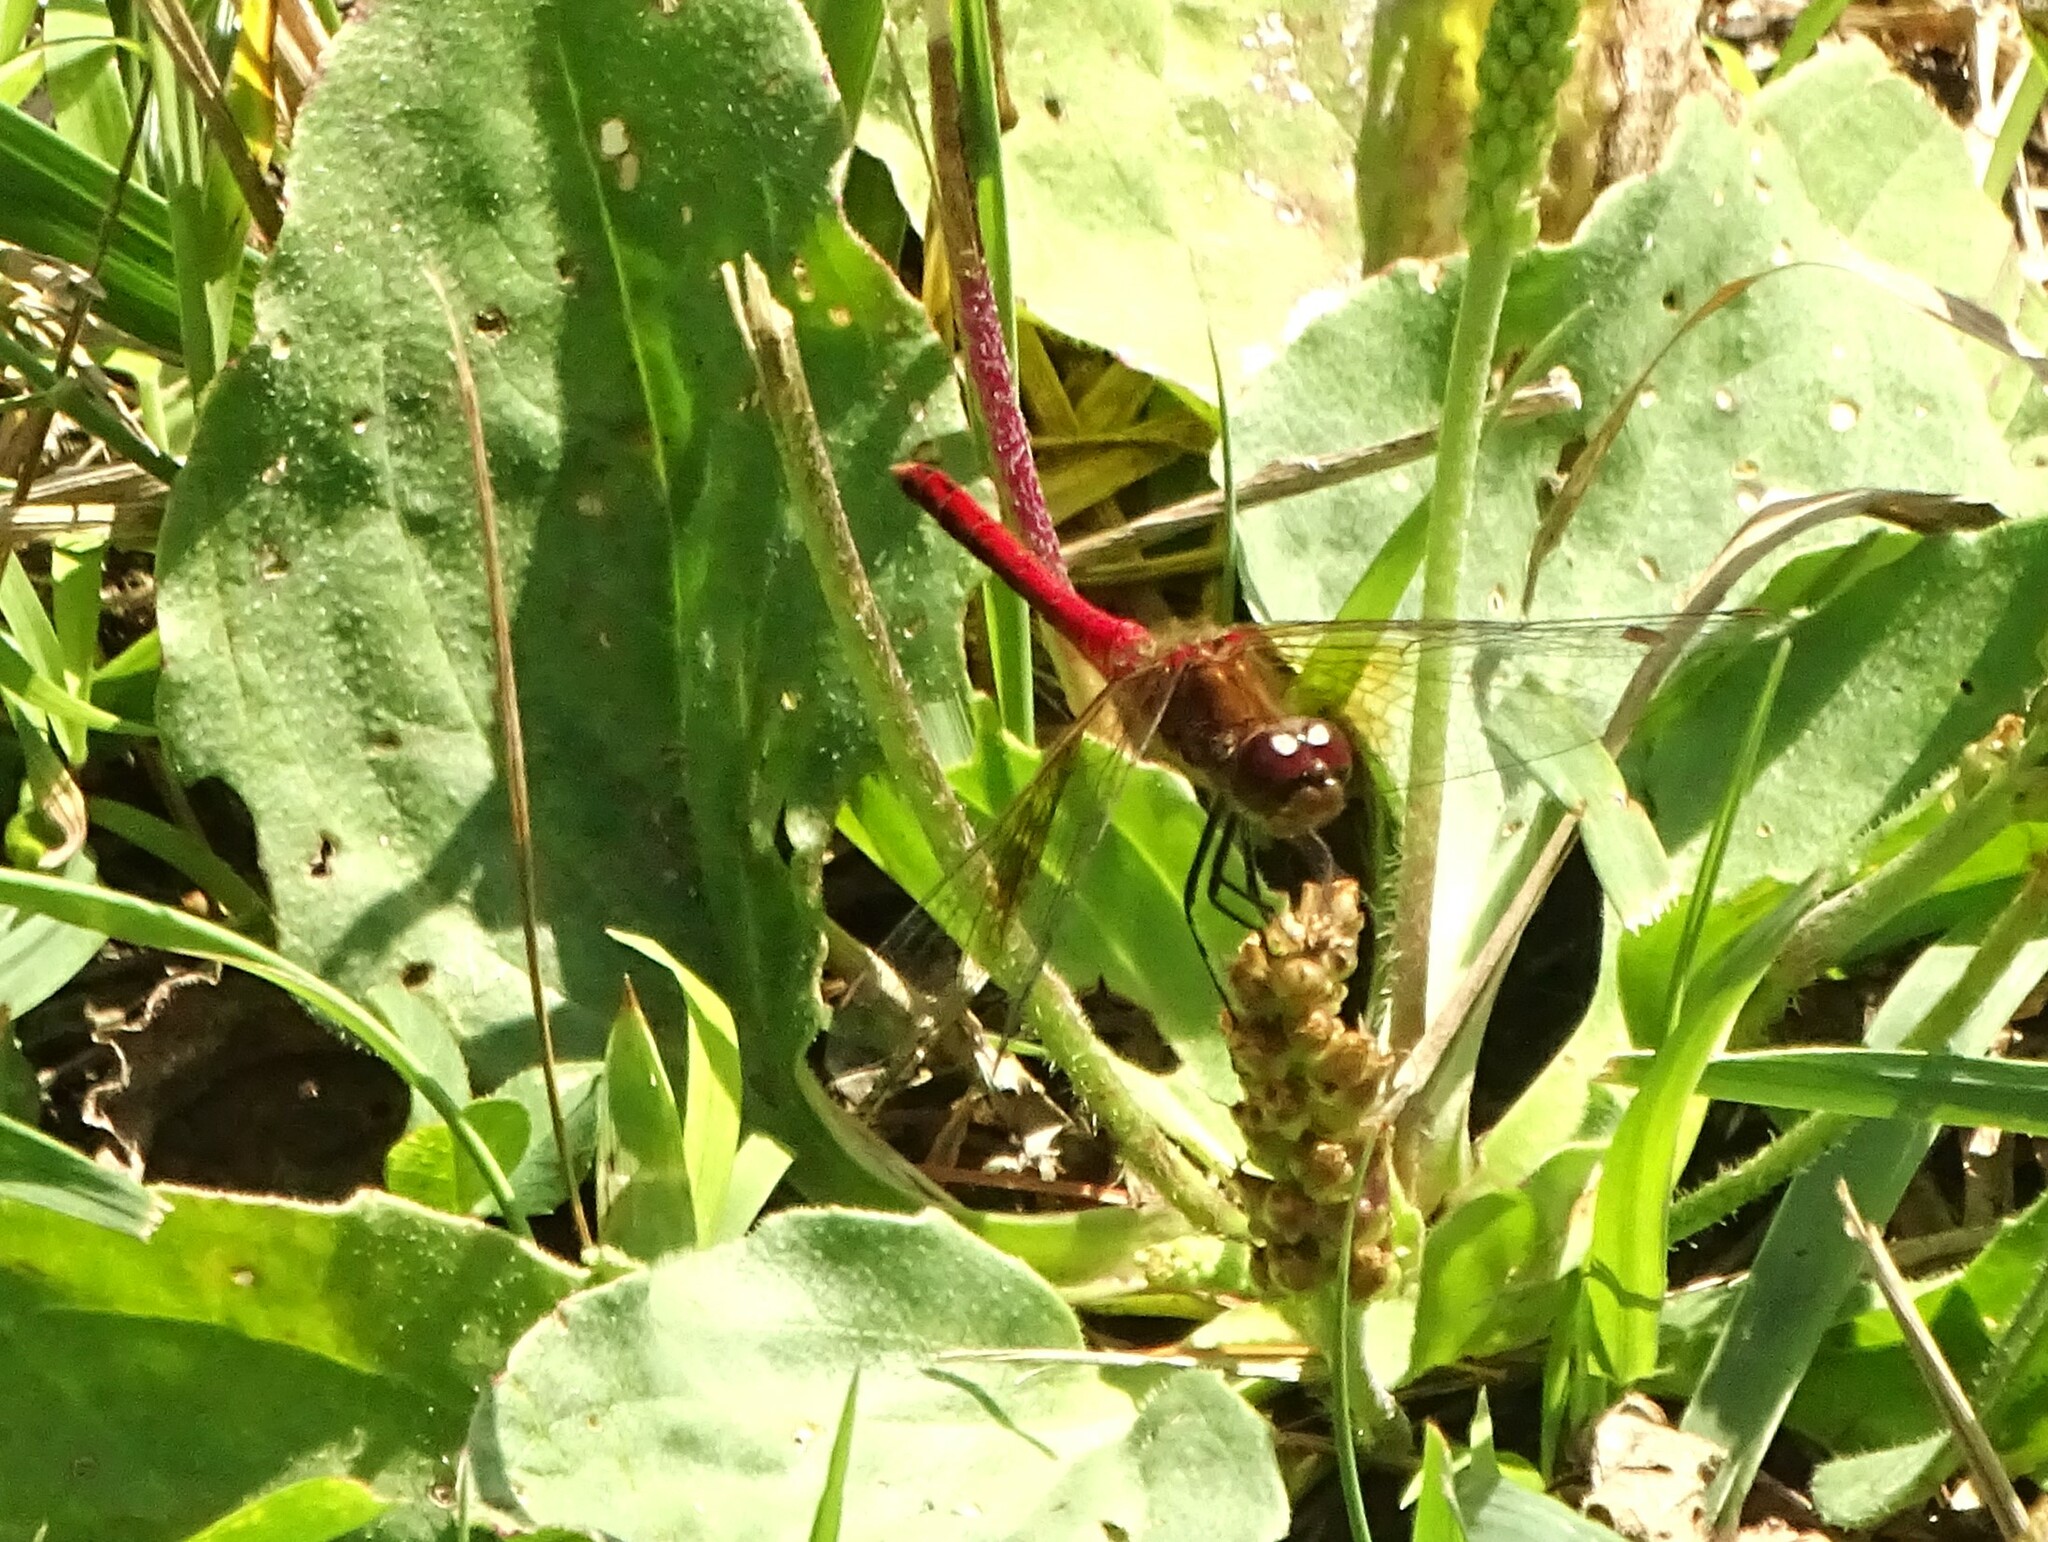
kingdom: Animalia
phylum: Arthropoda
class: Insecta
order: Odonata
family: Libellulidae
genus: Sympetrum
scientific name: Sympetrum semicinctum
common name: Band-winged meadowhawk
